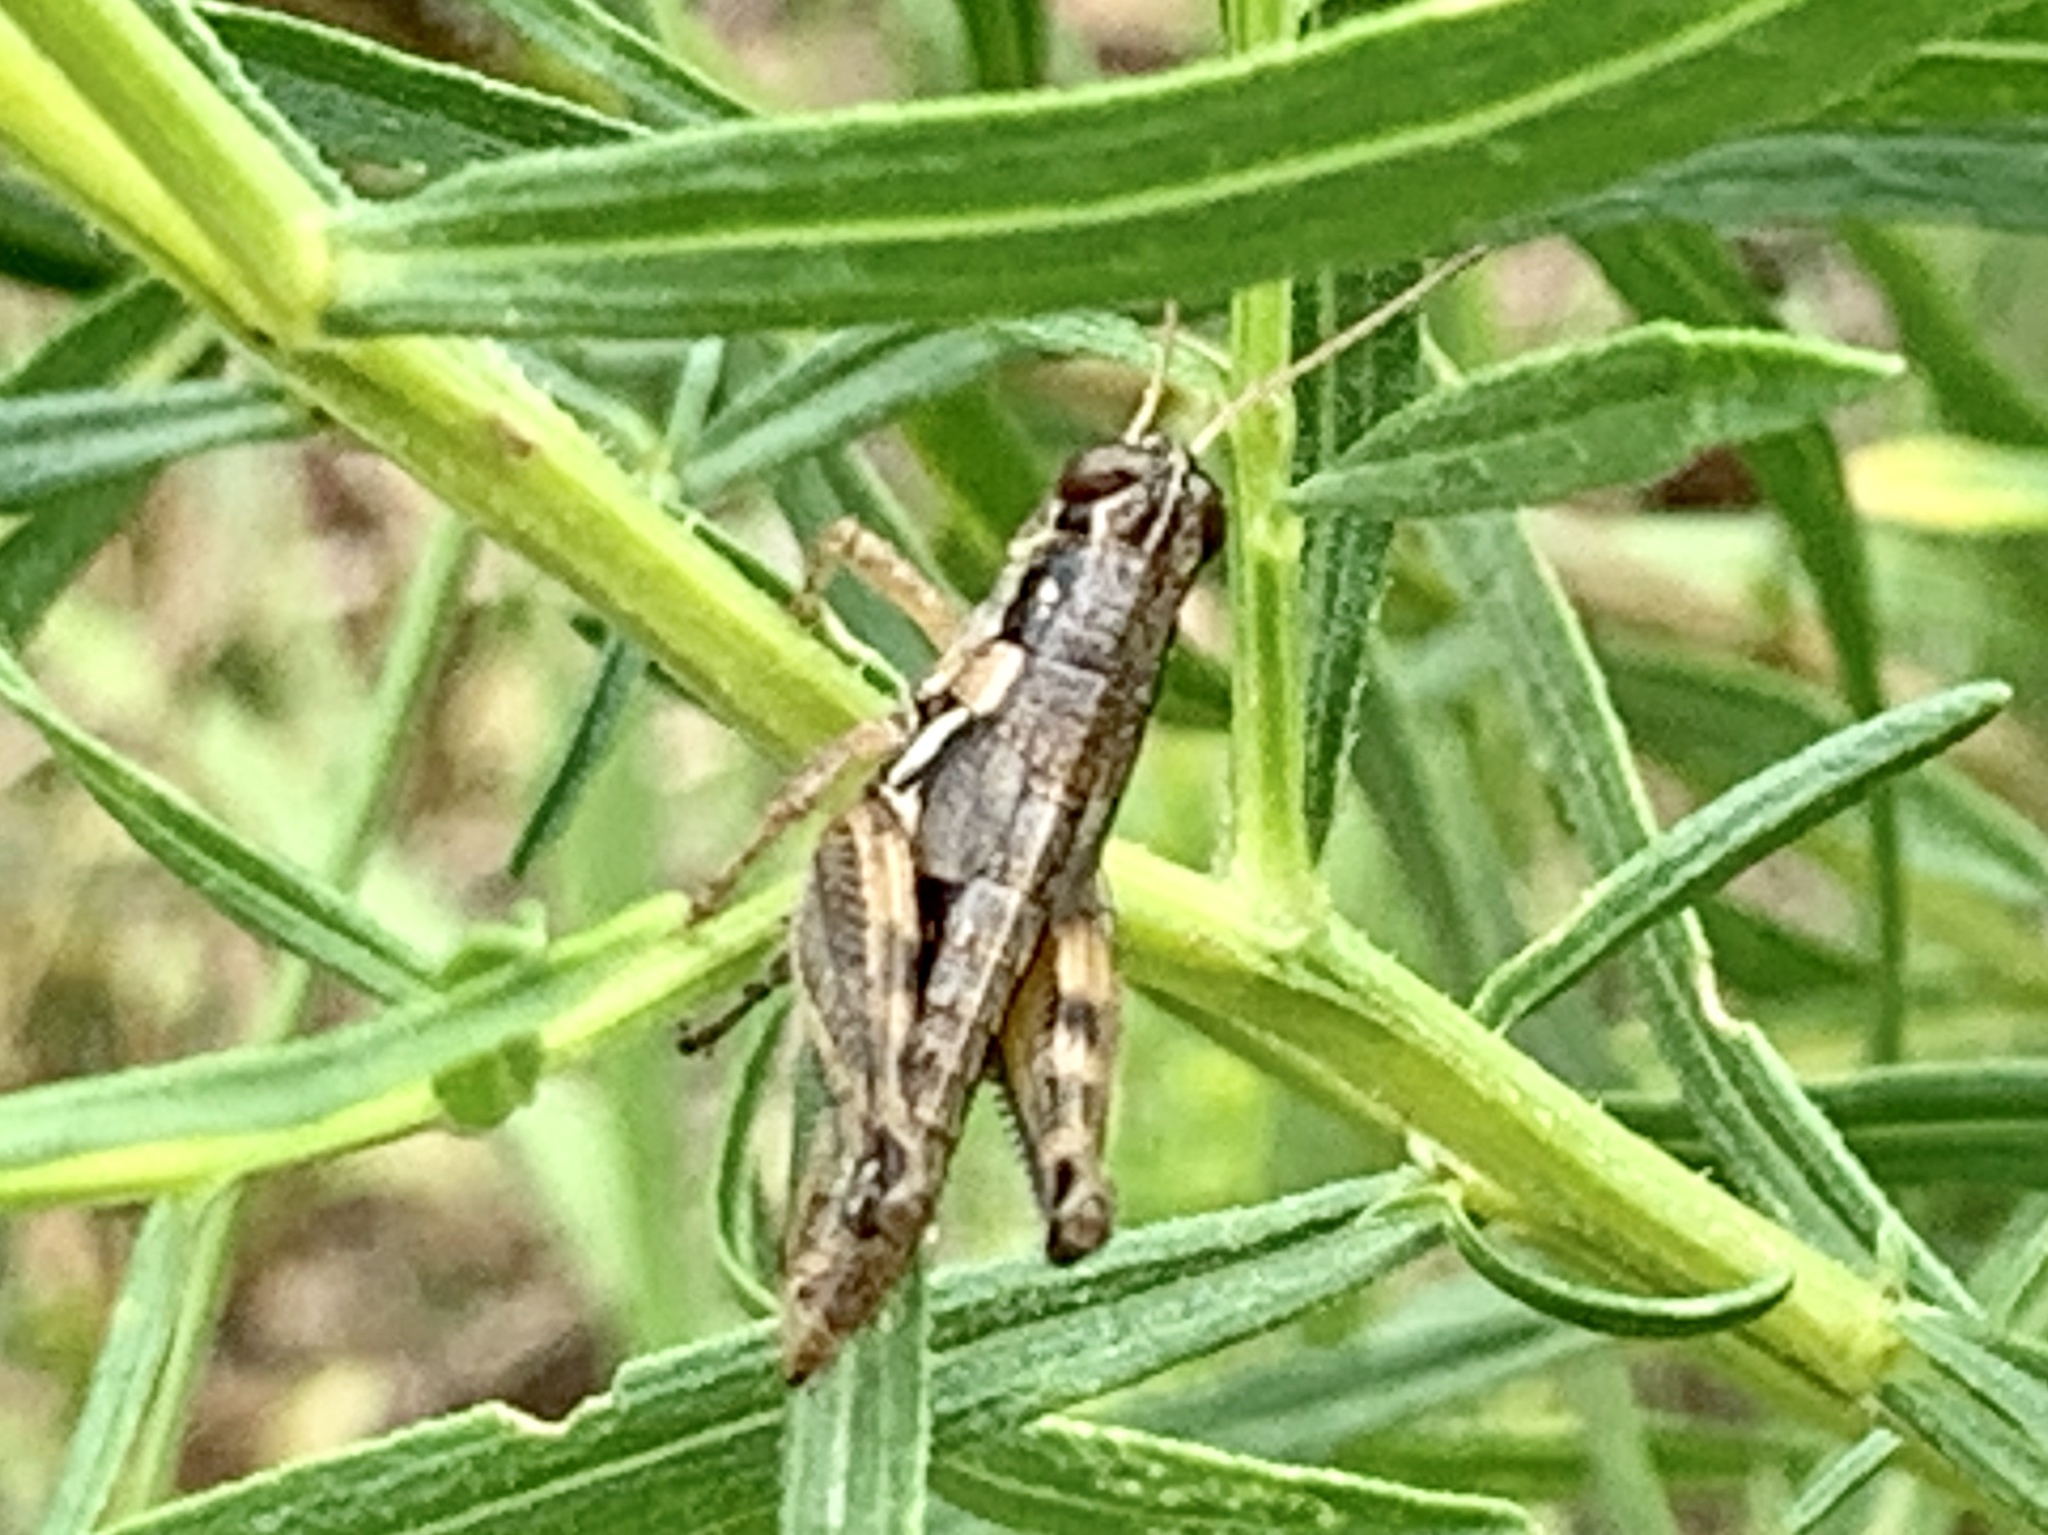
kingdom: Animalia
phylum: Arthropoda
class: Insecta
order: Orthoptera
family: Acrididae
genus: Melanoplus
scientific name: Melanoplus aridus
